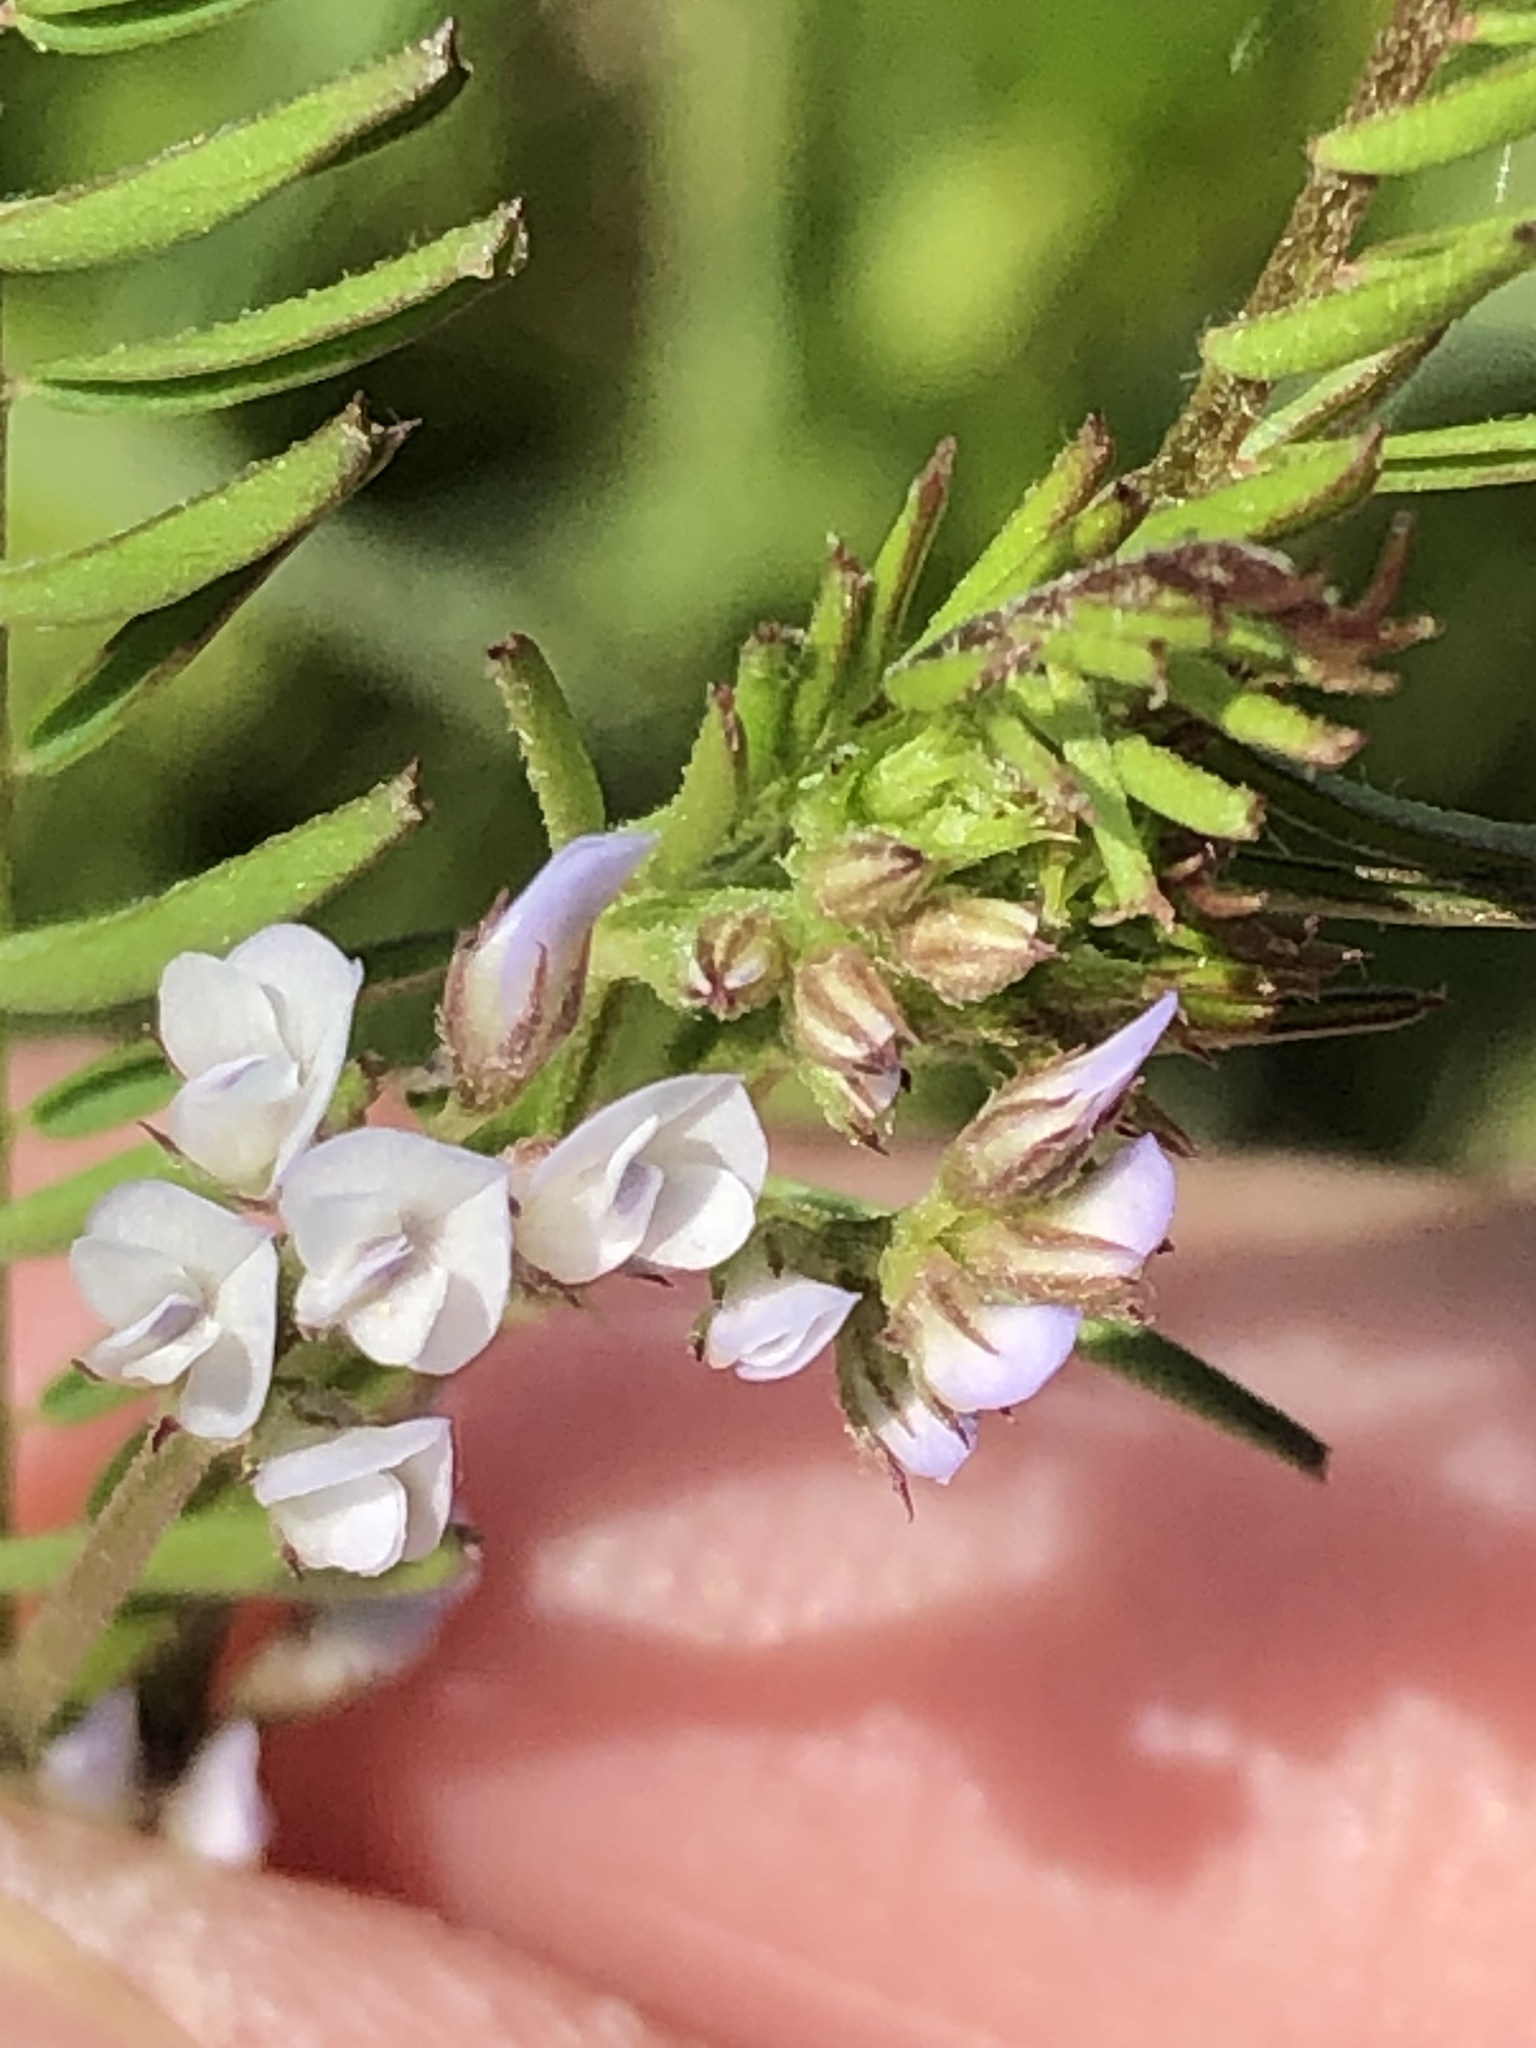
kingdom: Plantae
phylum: Tracheophyta
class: Magnoliopsida
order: Fabales
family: Fabaceae
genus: Vicia
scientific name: Vicia hirsuta
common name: Tiny vetch
